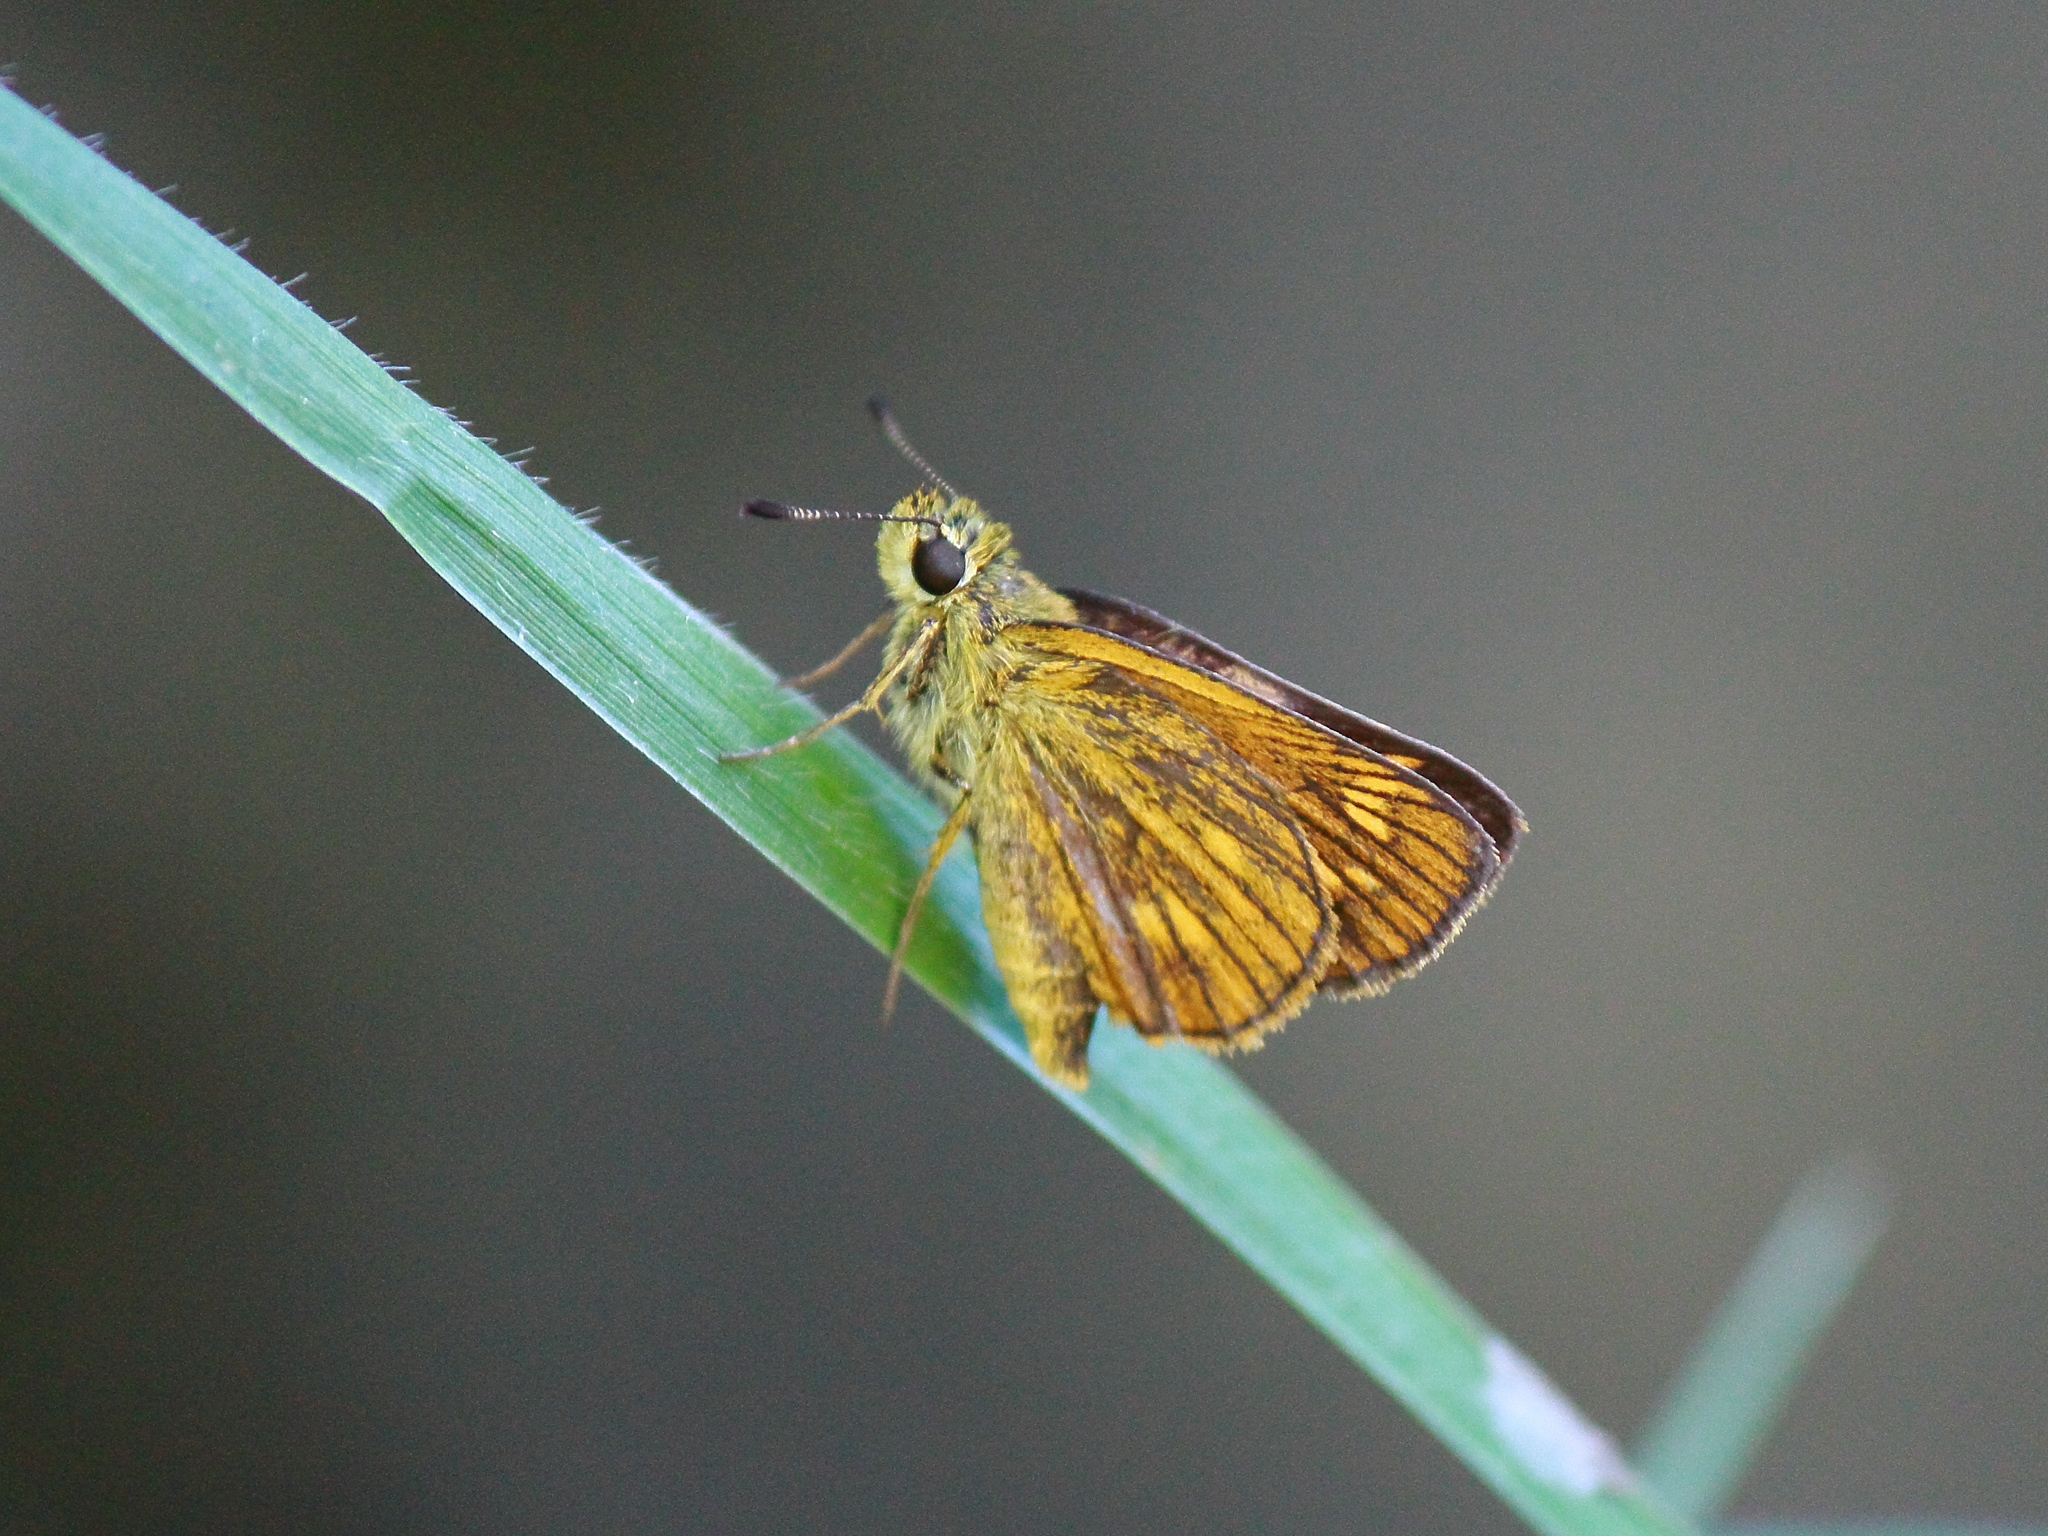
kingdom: Animalia
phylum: Arthropoda
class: Insecta
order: Lepidoptera
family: Hesperiidae
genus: Ochlodes
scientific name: Ochlodes ochracea
